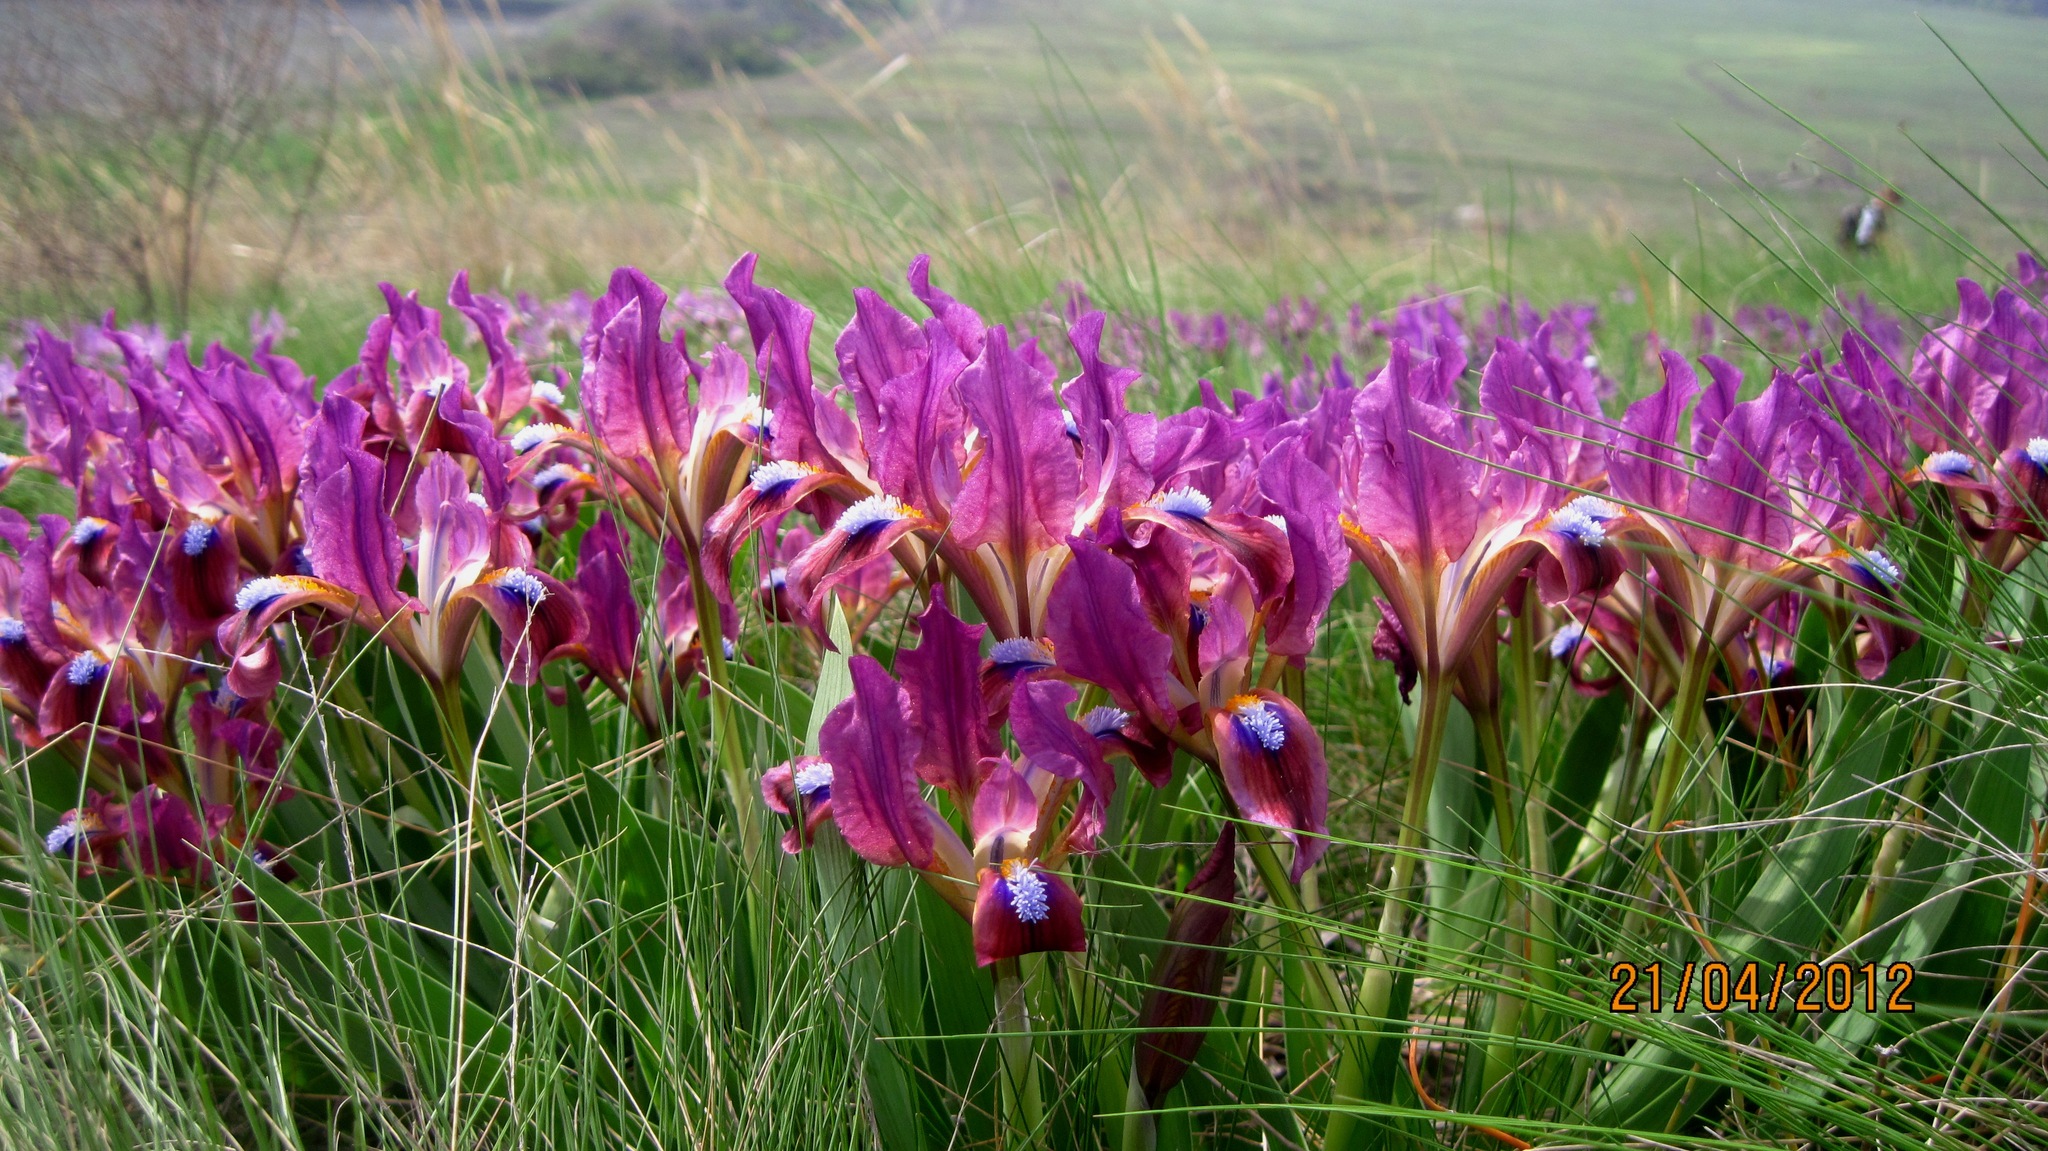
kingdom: Plantae
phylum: Tracheophyta
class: Liliopsida
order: Asparagales
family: Iridaceae
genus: Iris
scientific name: Iris pumila
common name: Dwarf iris
